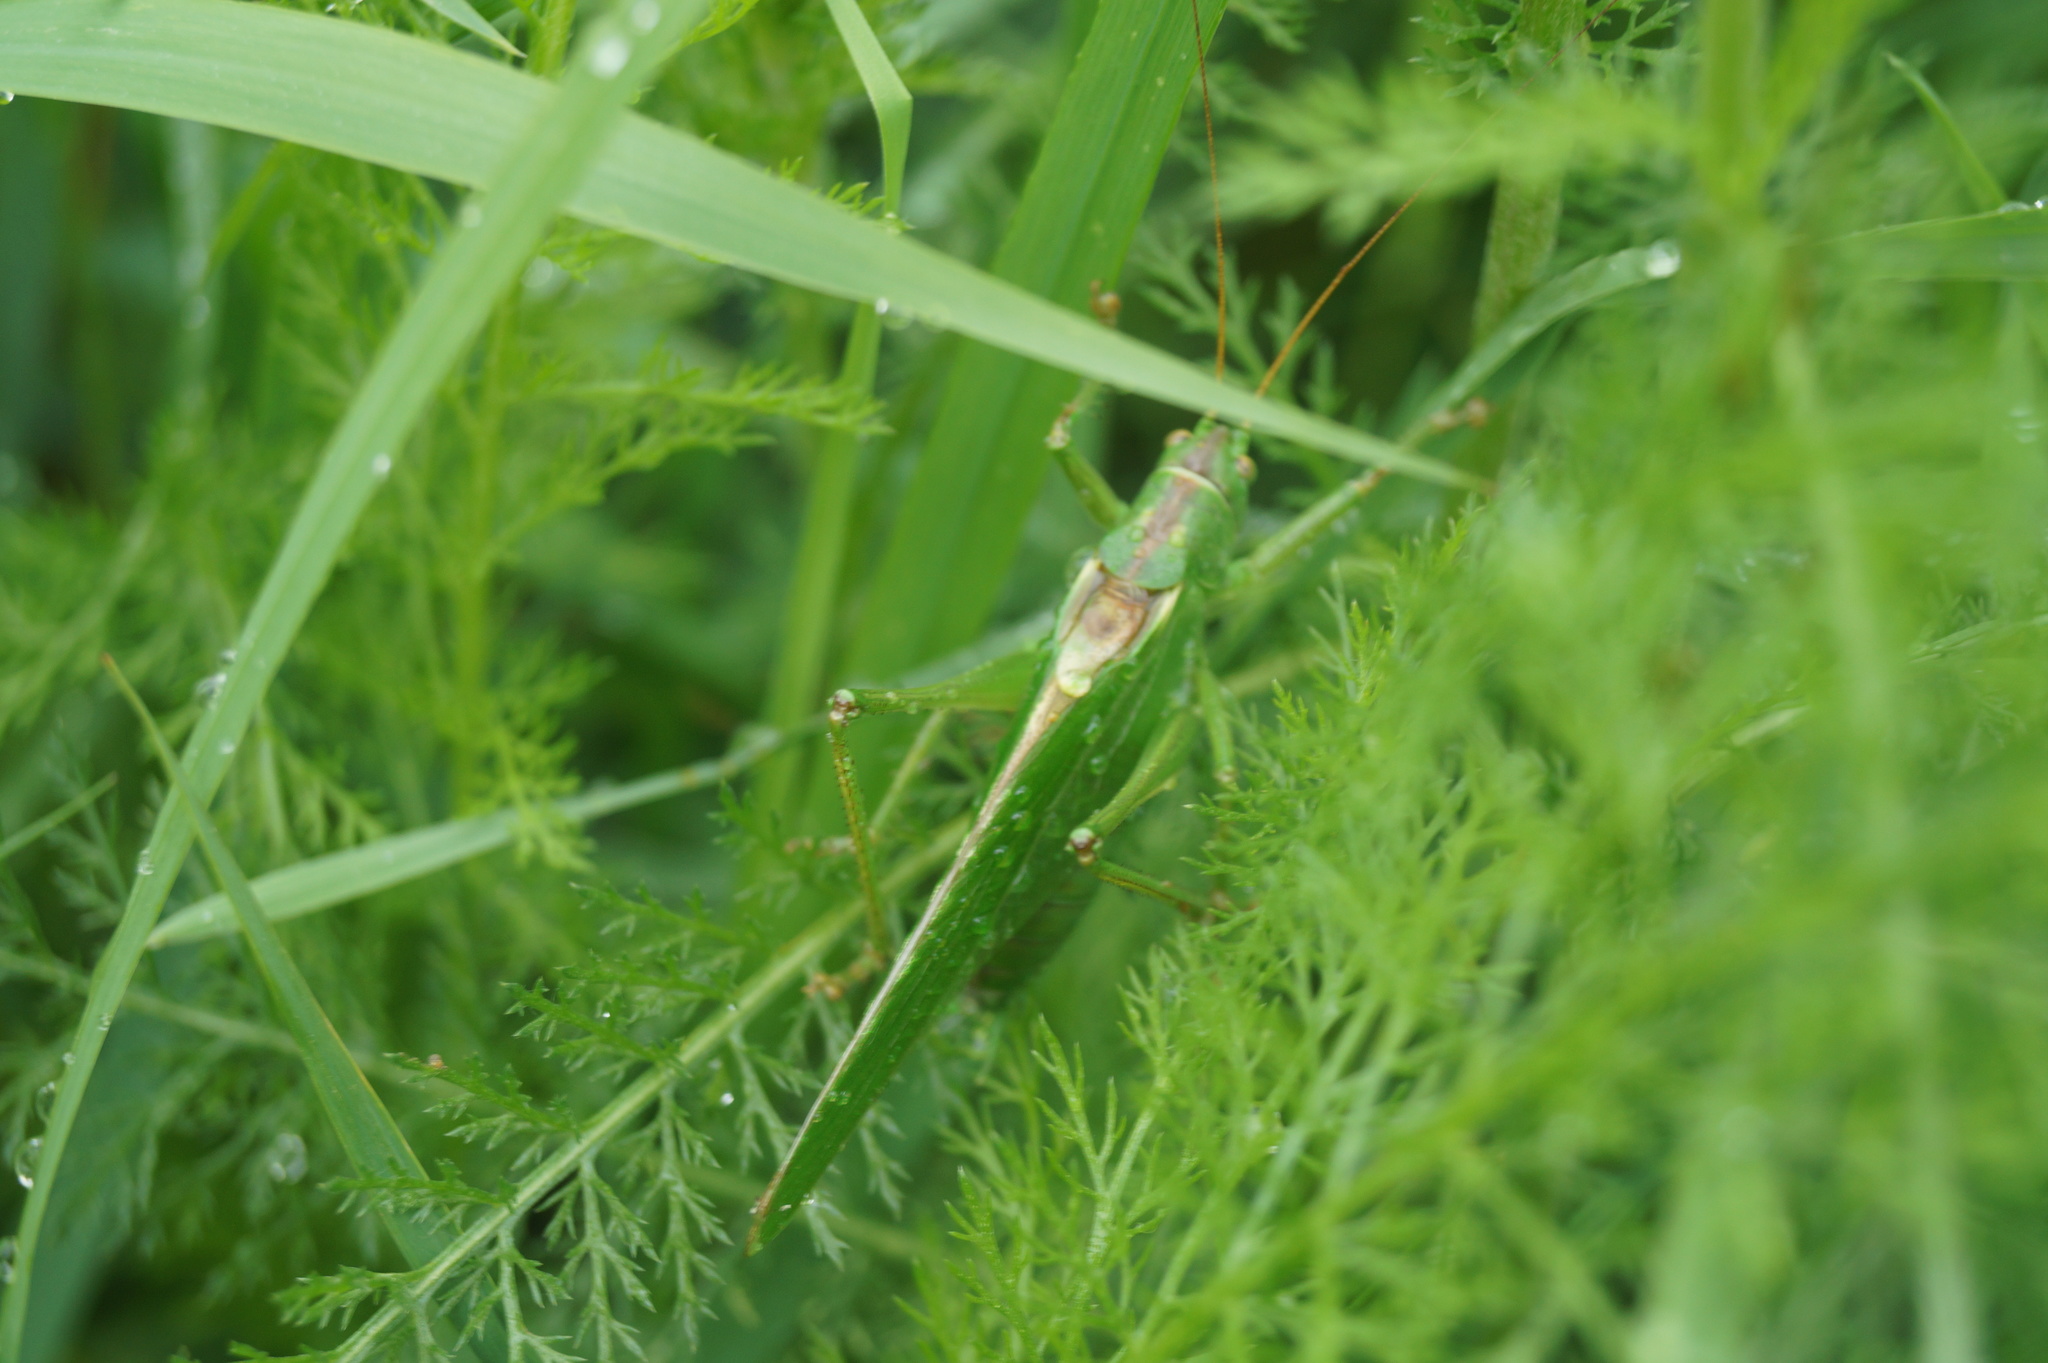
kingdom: Animalia
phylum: Arthropoda
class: Insecta
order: Orthoptera
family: Tettigoniidae
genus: Tettigonia
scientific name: Tettigonia viridissima
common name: Great green bush-cricket
